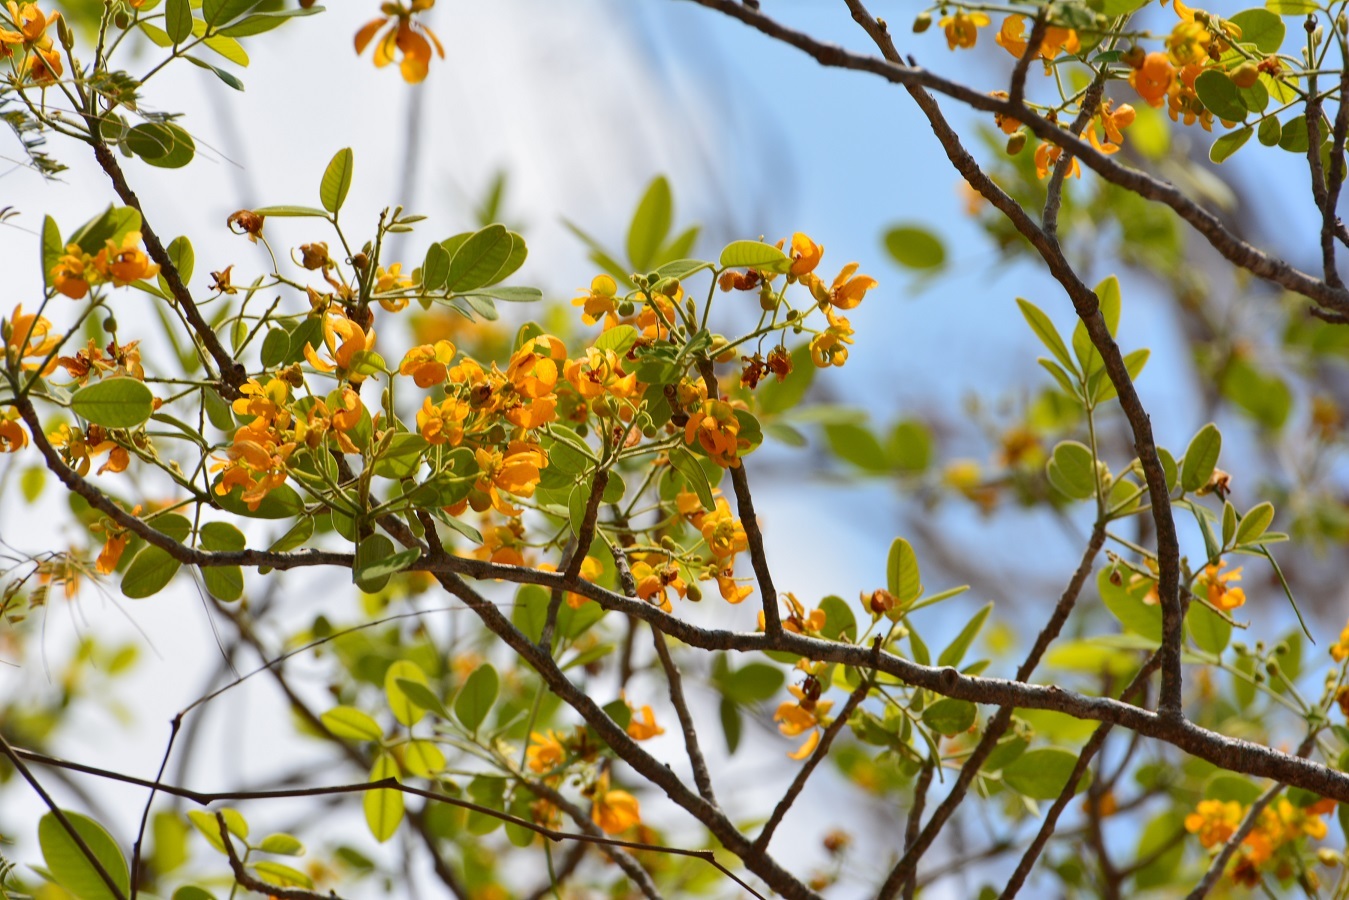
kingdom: Plantae
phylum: Tracheophyta
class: Magnoliopsida
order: Fabales
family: Fabaceae
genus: Senna
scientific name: Senna atomaria
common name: Flor de san jose
